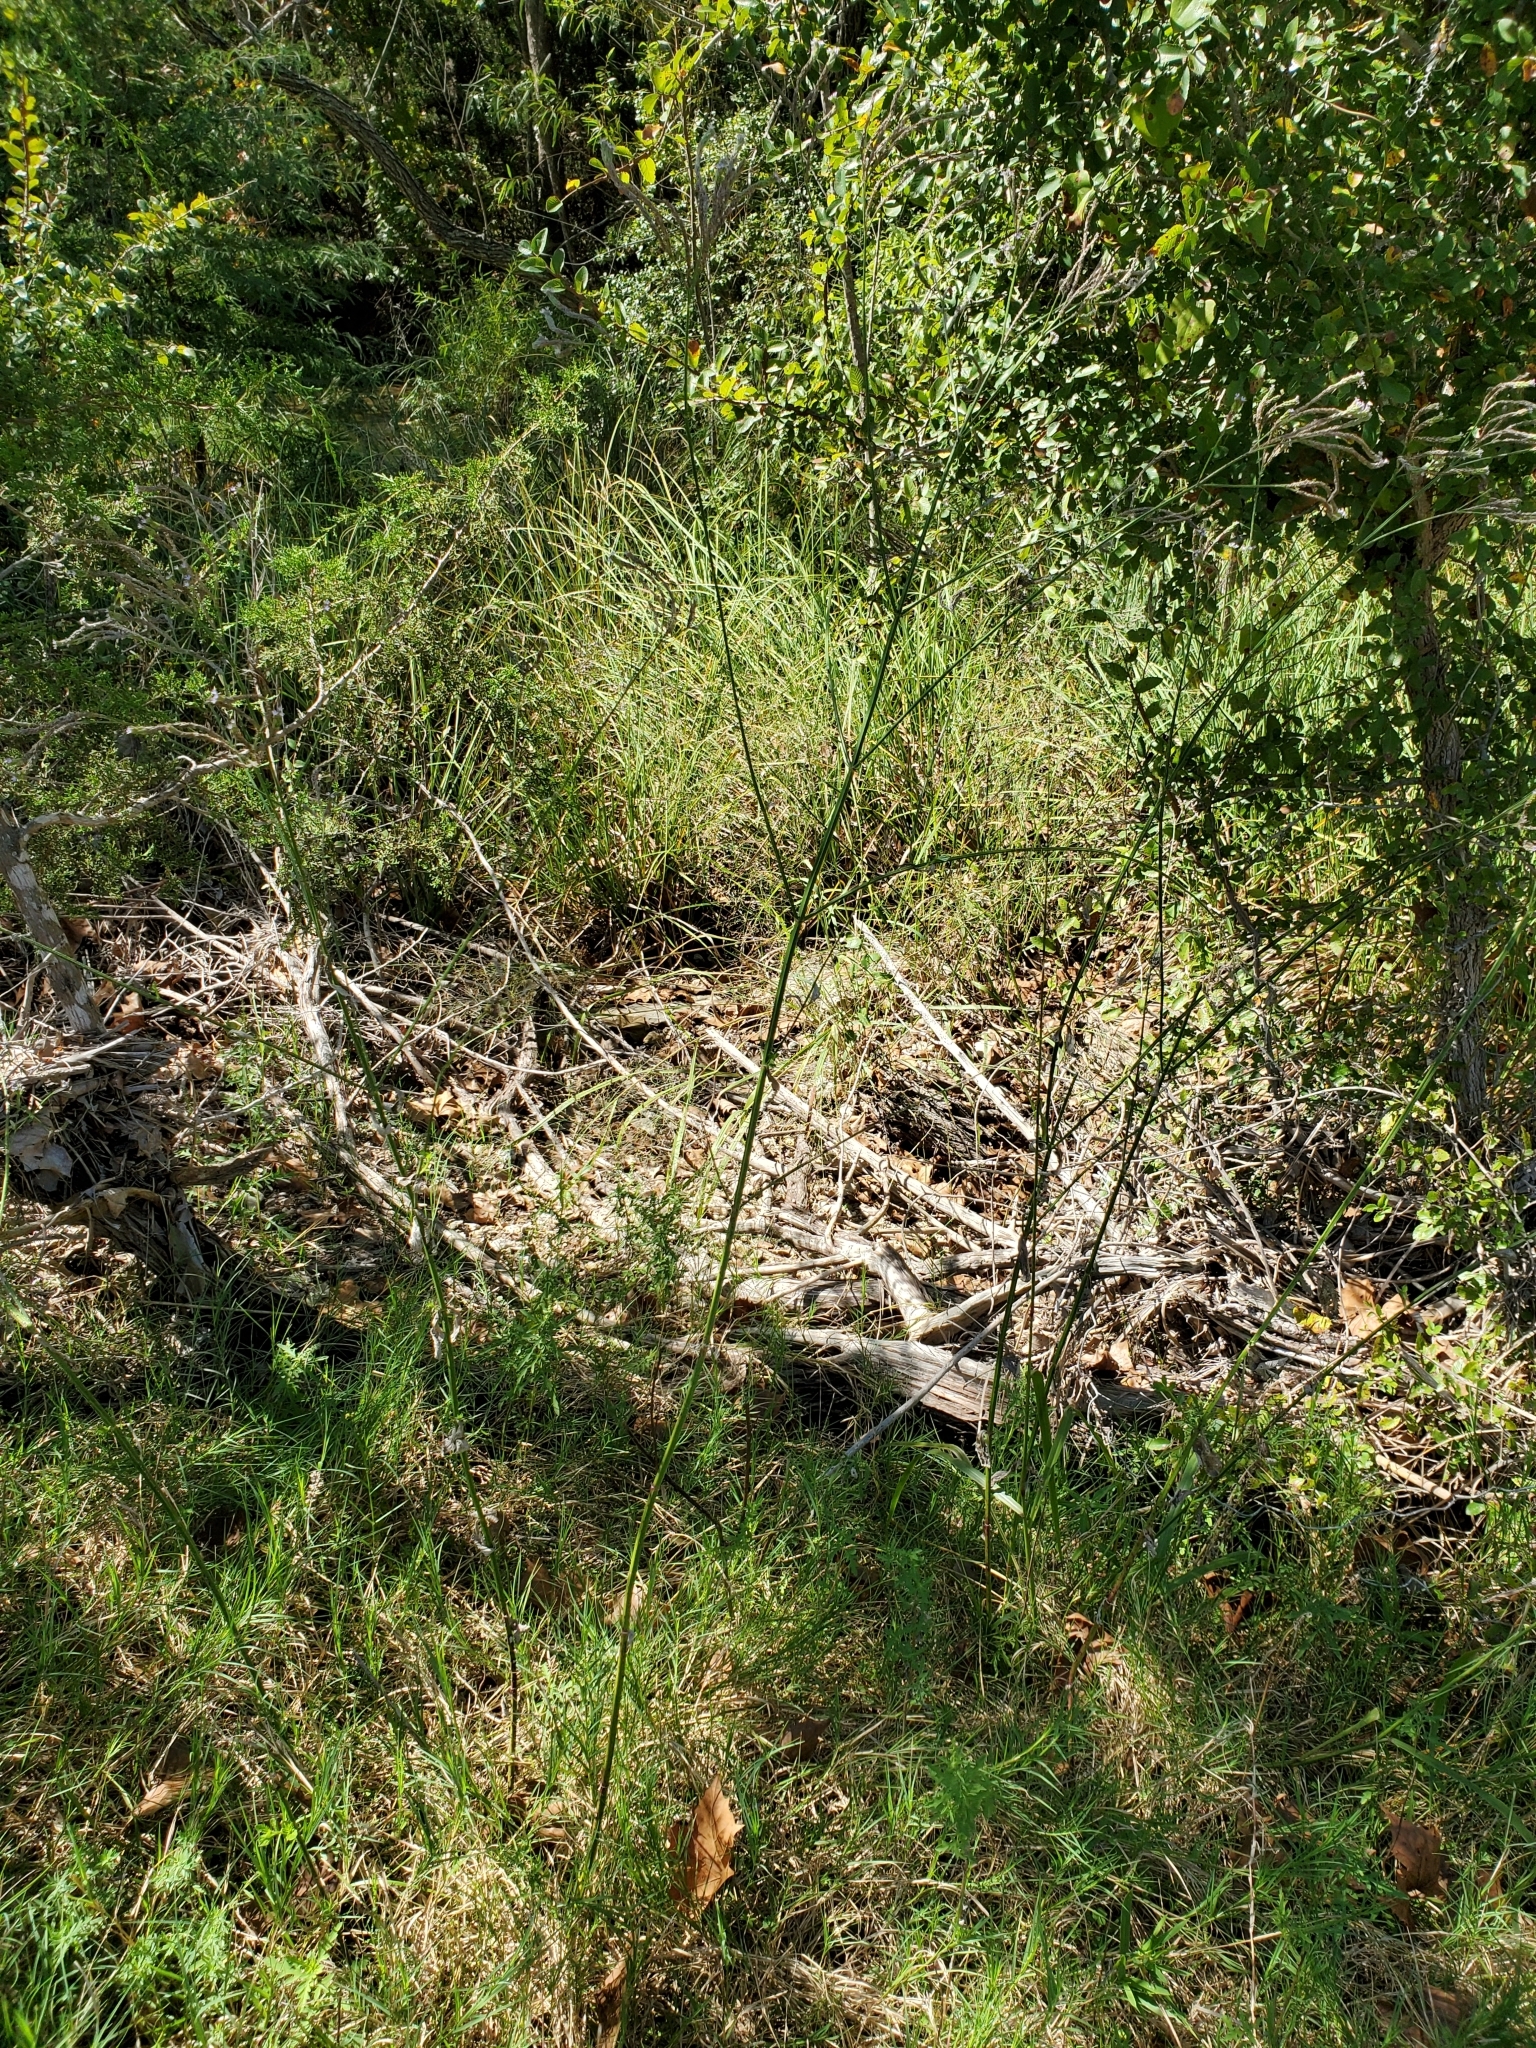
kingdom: Plantae
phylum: Tracheophyta
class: Magnoliopsida
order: Lamiales
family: Verbenaceae
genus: Verbena
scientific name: Verbena brasiliensis
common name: Brazilian vervain
